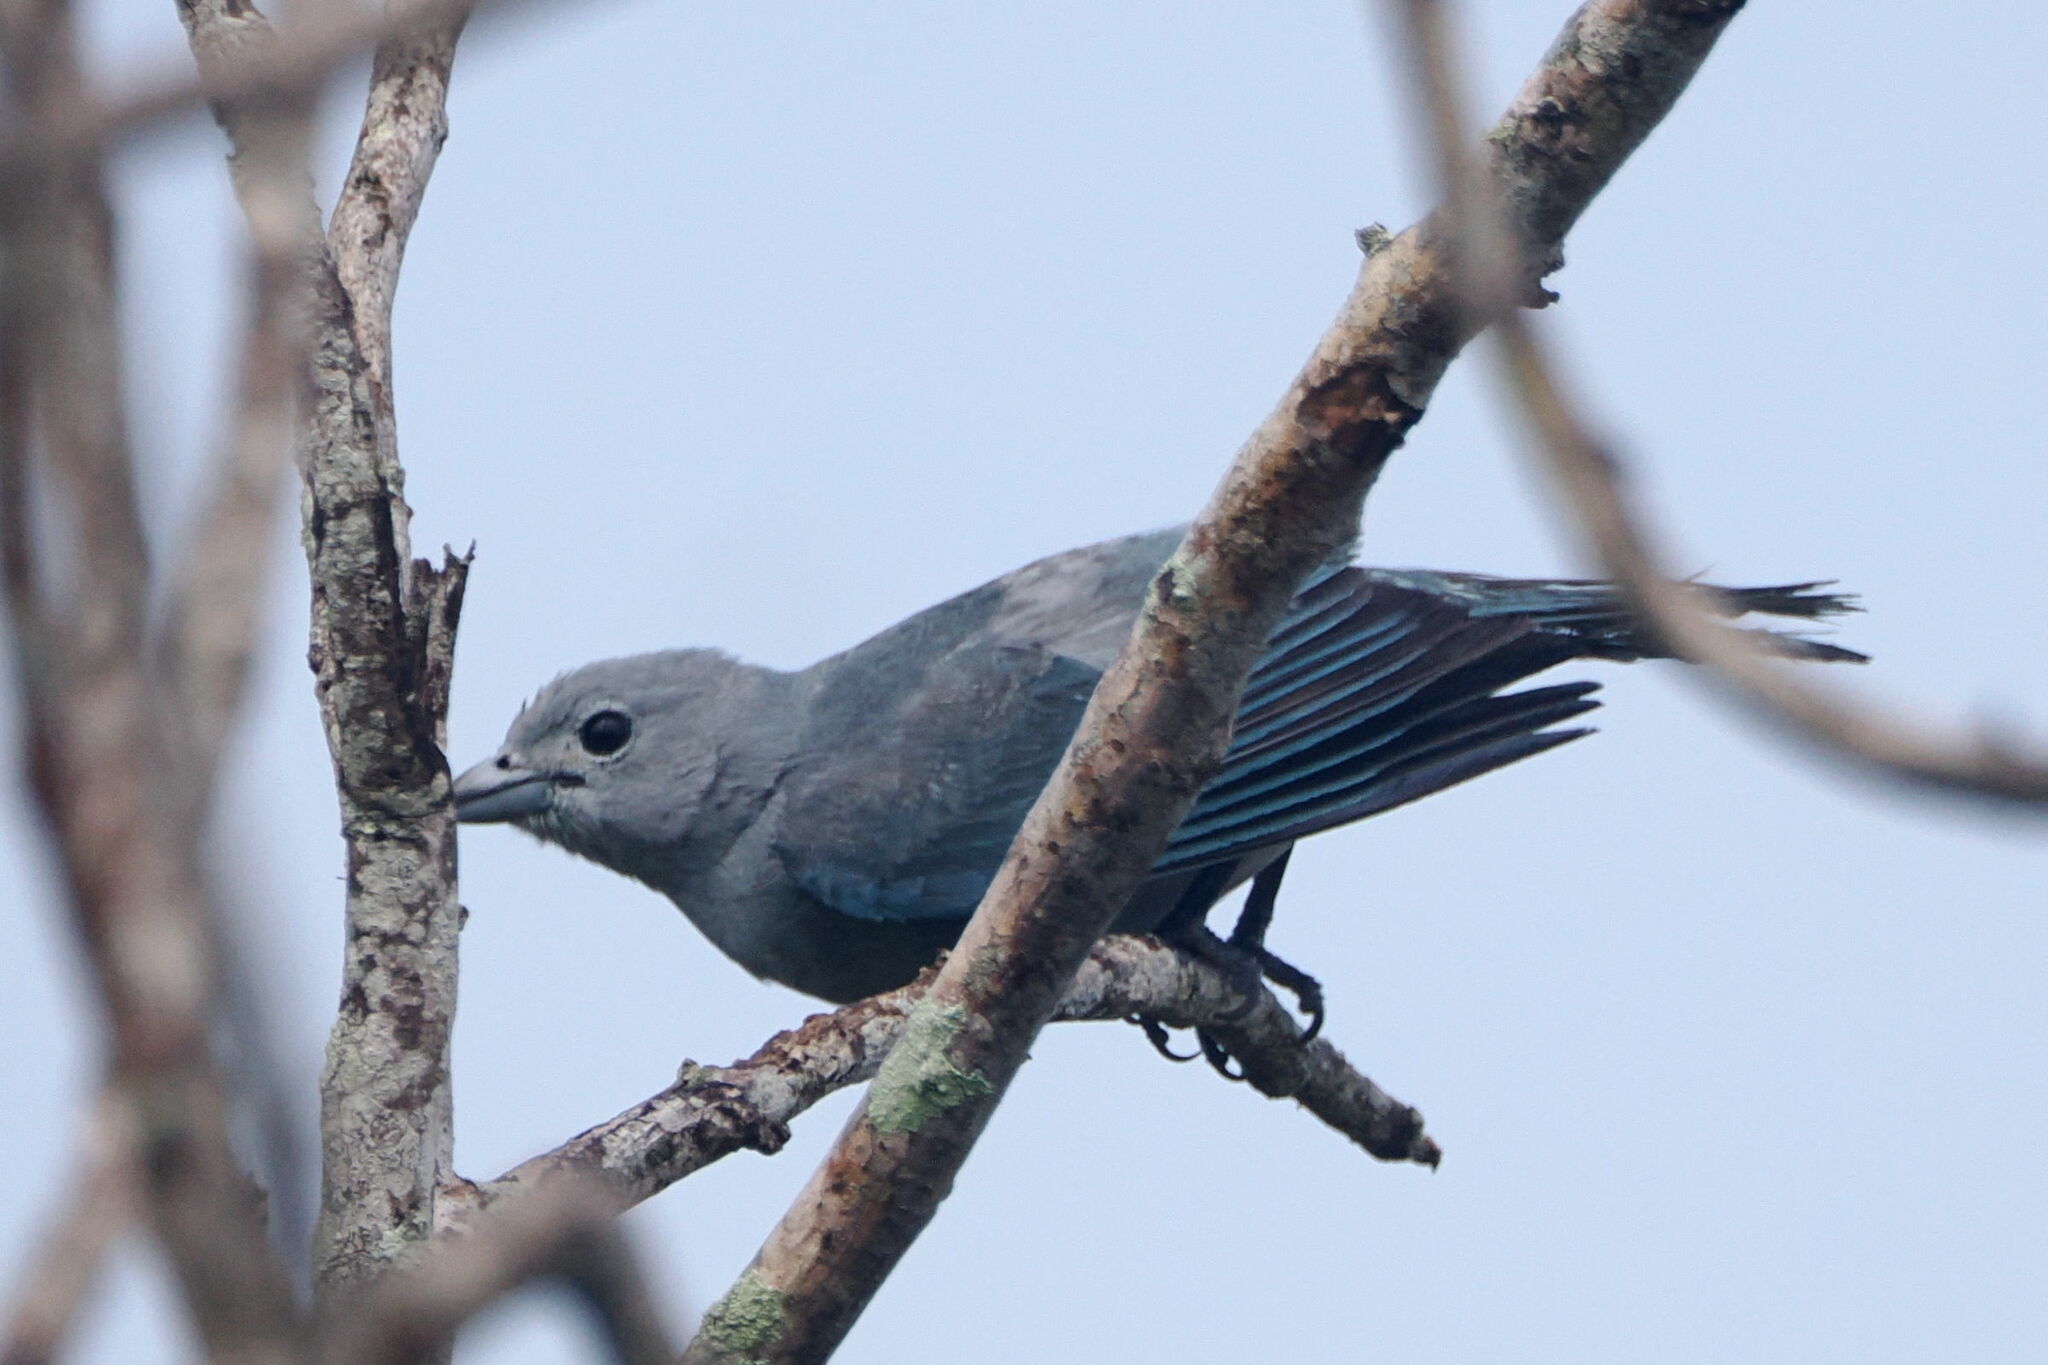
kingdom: Animalia
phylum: Chordata
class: Aves
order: Passeriformes
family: Thraupidae
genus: Thraupis
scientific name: Thraupis sayaca
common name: Sayaca tanager
